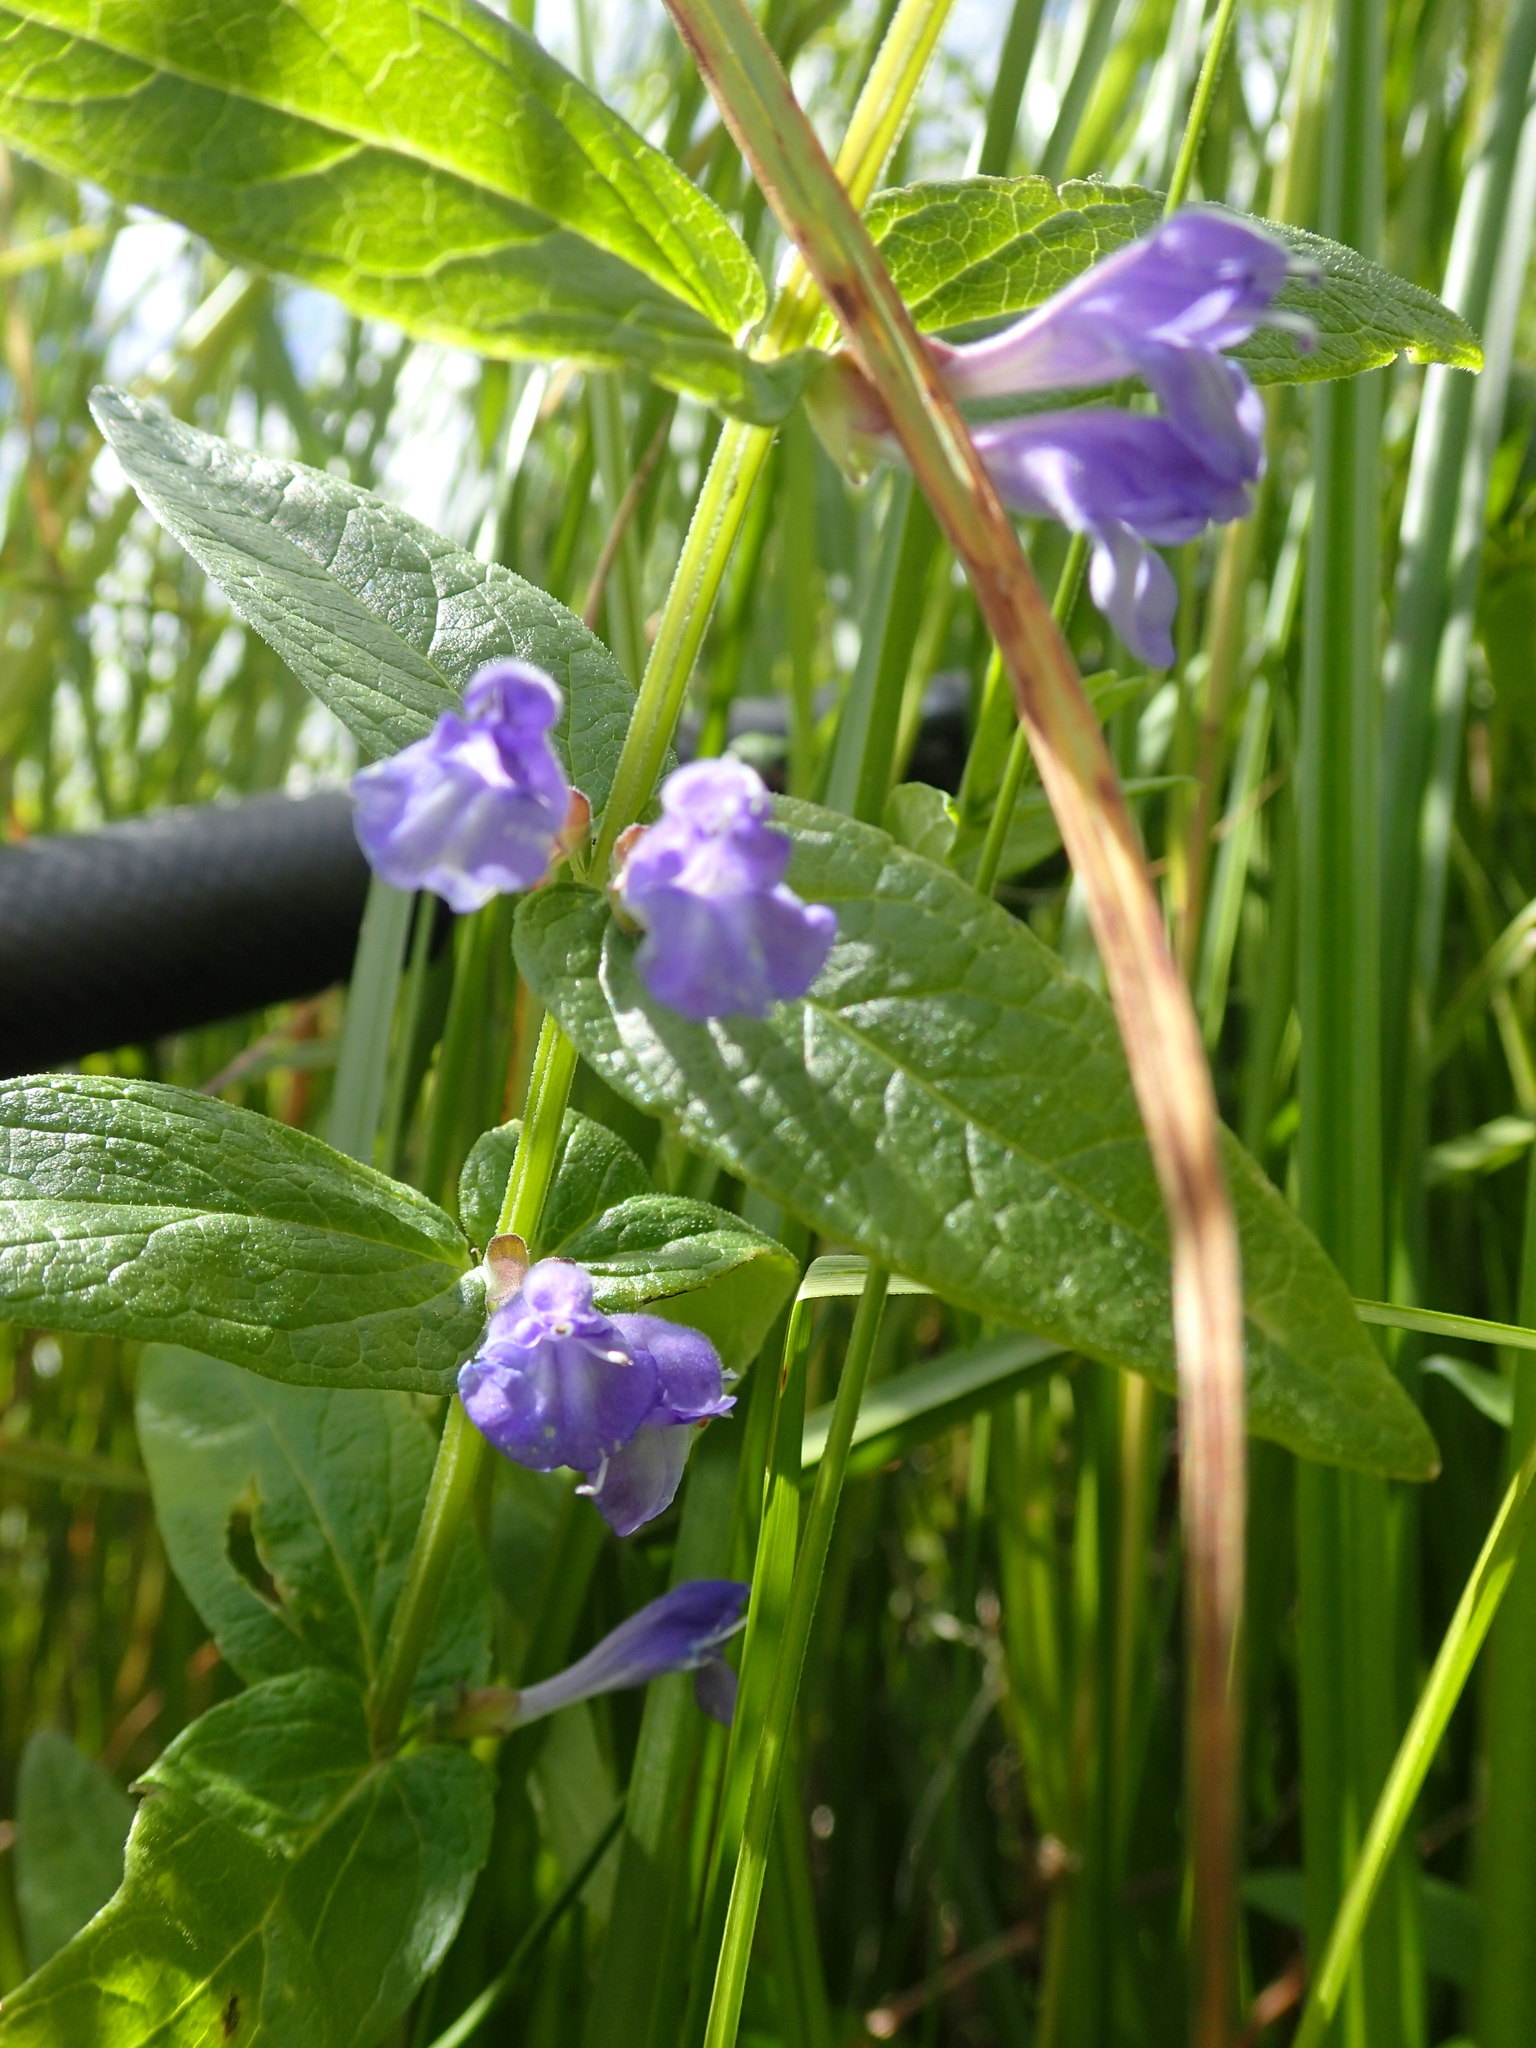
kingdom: Plantae
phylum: Tracheophyta
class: Magnoliopsida
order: Lamiales
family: Lamiaceae
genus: Scutellaria
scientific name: Scutellaria galericulata
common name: Skullcap
